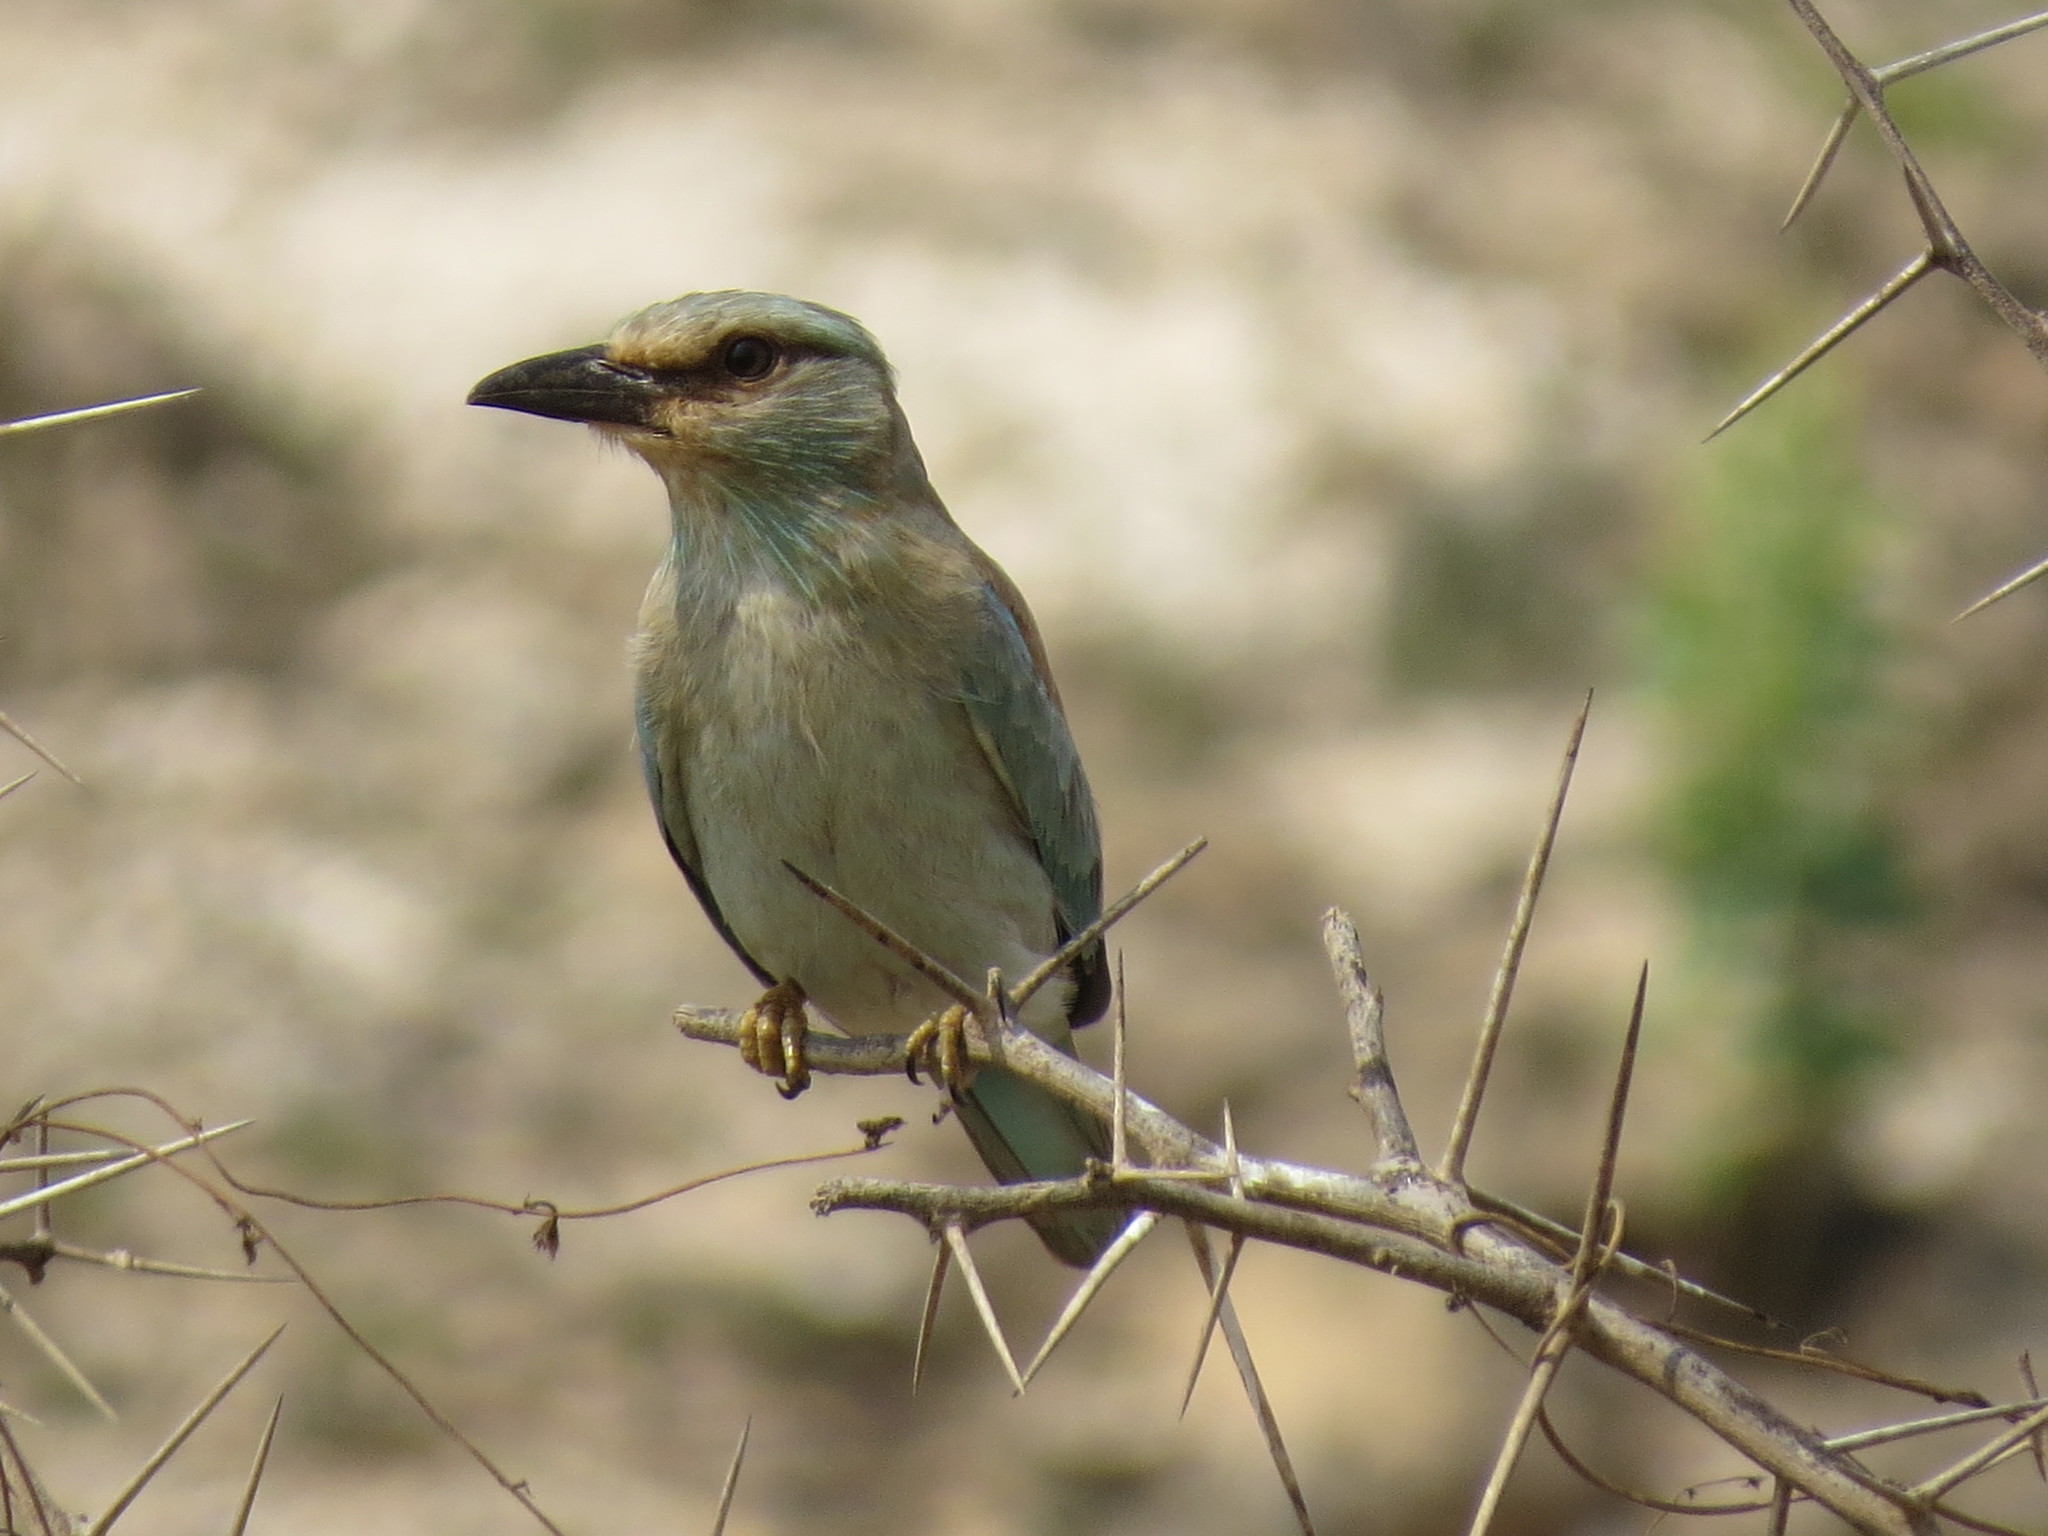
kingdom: Animalia
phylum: Chordata
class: Aves
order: Coraciiformes
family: Coraciidae
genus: Coracias
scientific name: Coracias garrulus
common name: European roller
